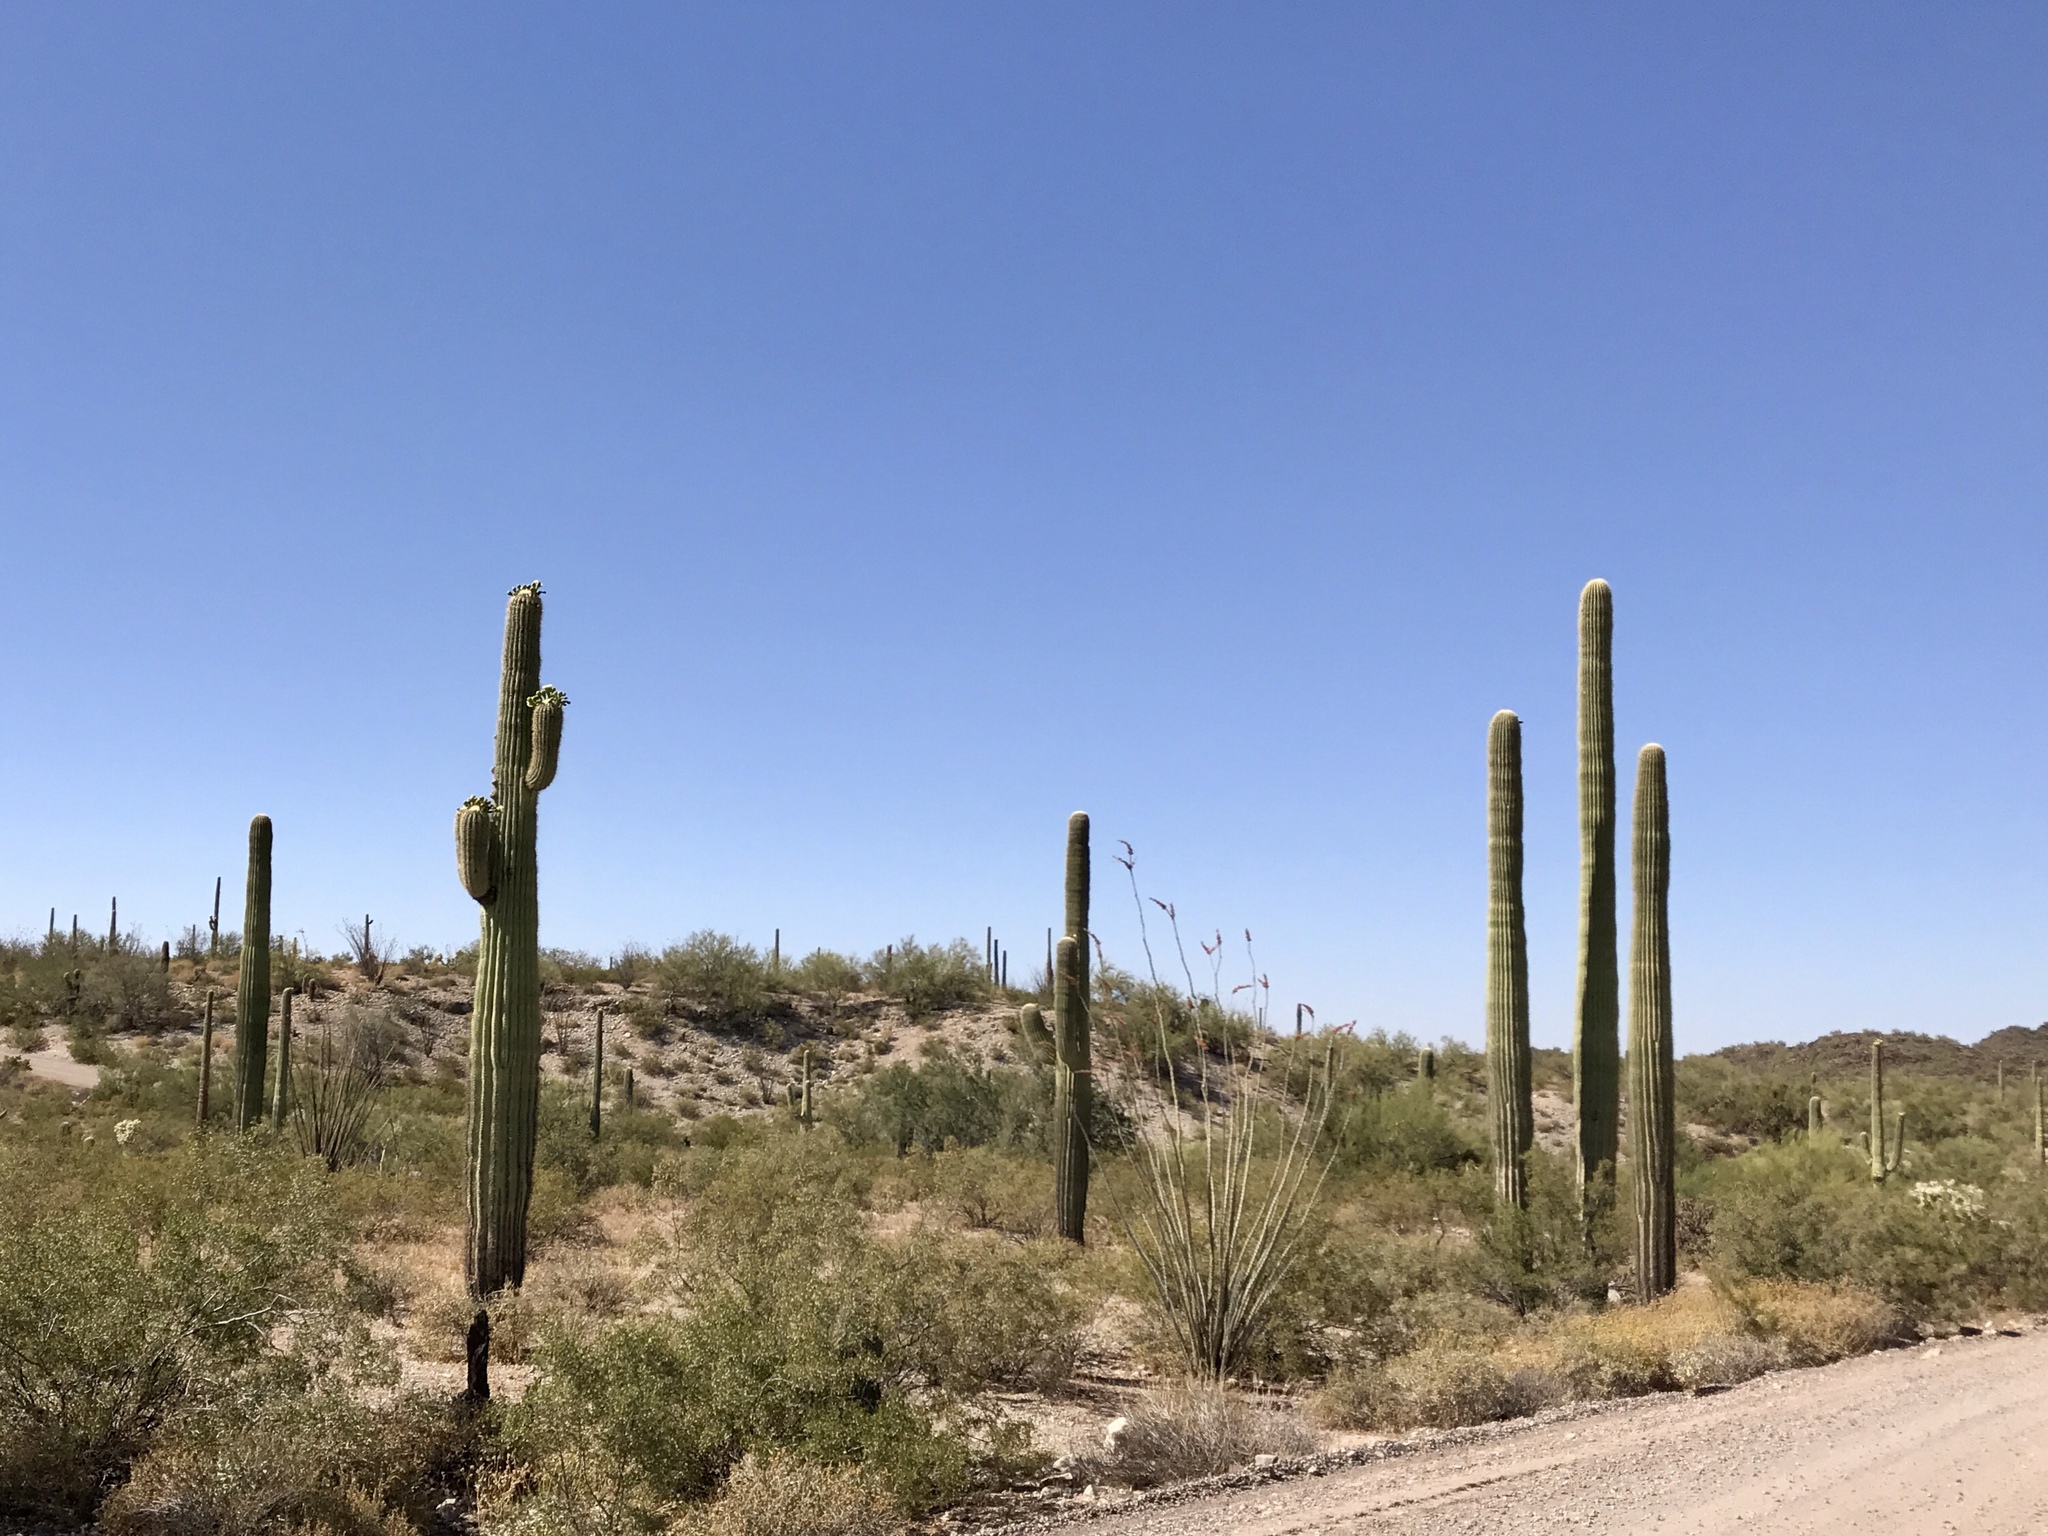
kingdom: Plantae
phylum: Tracheophyta
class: Magnoliopsida
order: Caryophyllales
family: Cactaceae
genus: Carnegiea
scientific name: Carnegiea gigantea
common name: Saguaro
